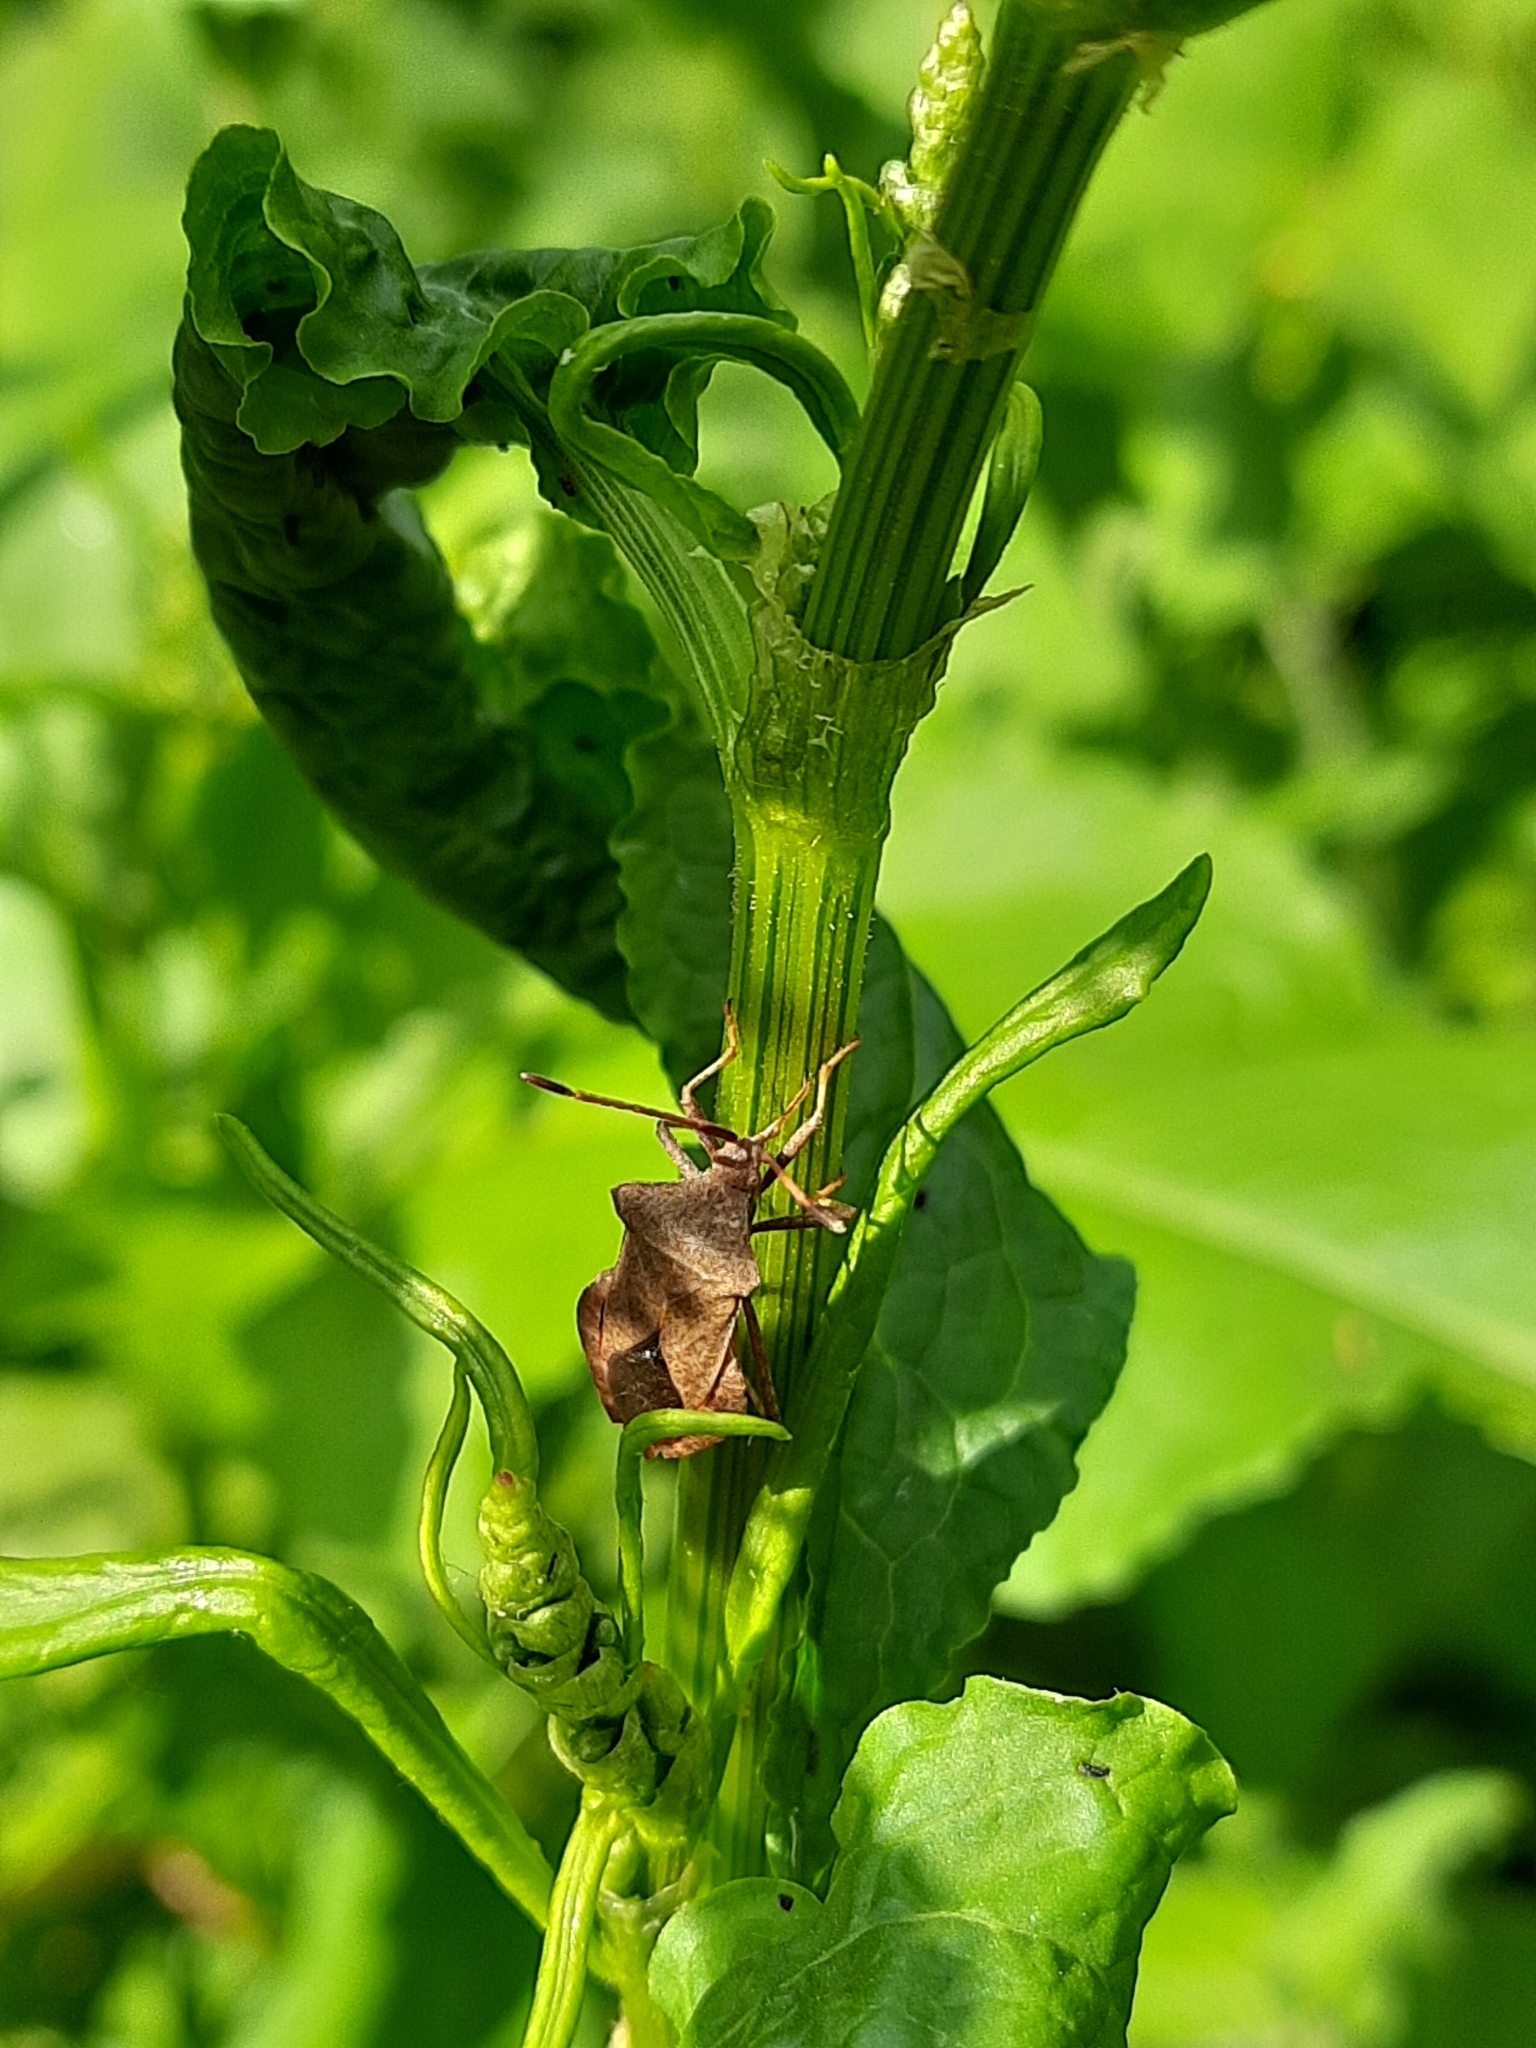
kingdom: Animalia
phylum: Arthropoda
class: Insecta
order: Hemiptera
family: Coreidae
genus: Coreus
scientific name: Coreus marginatus
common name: Dock bug
